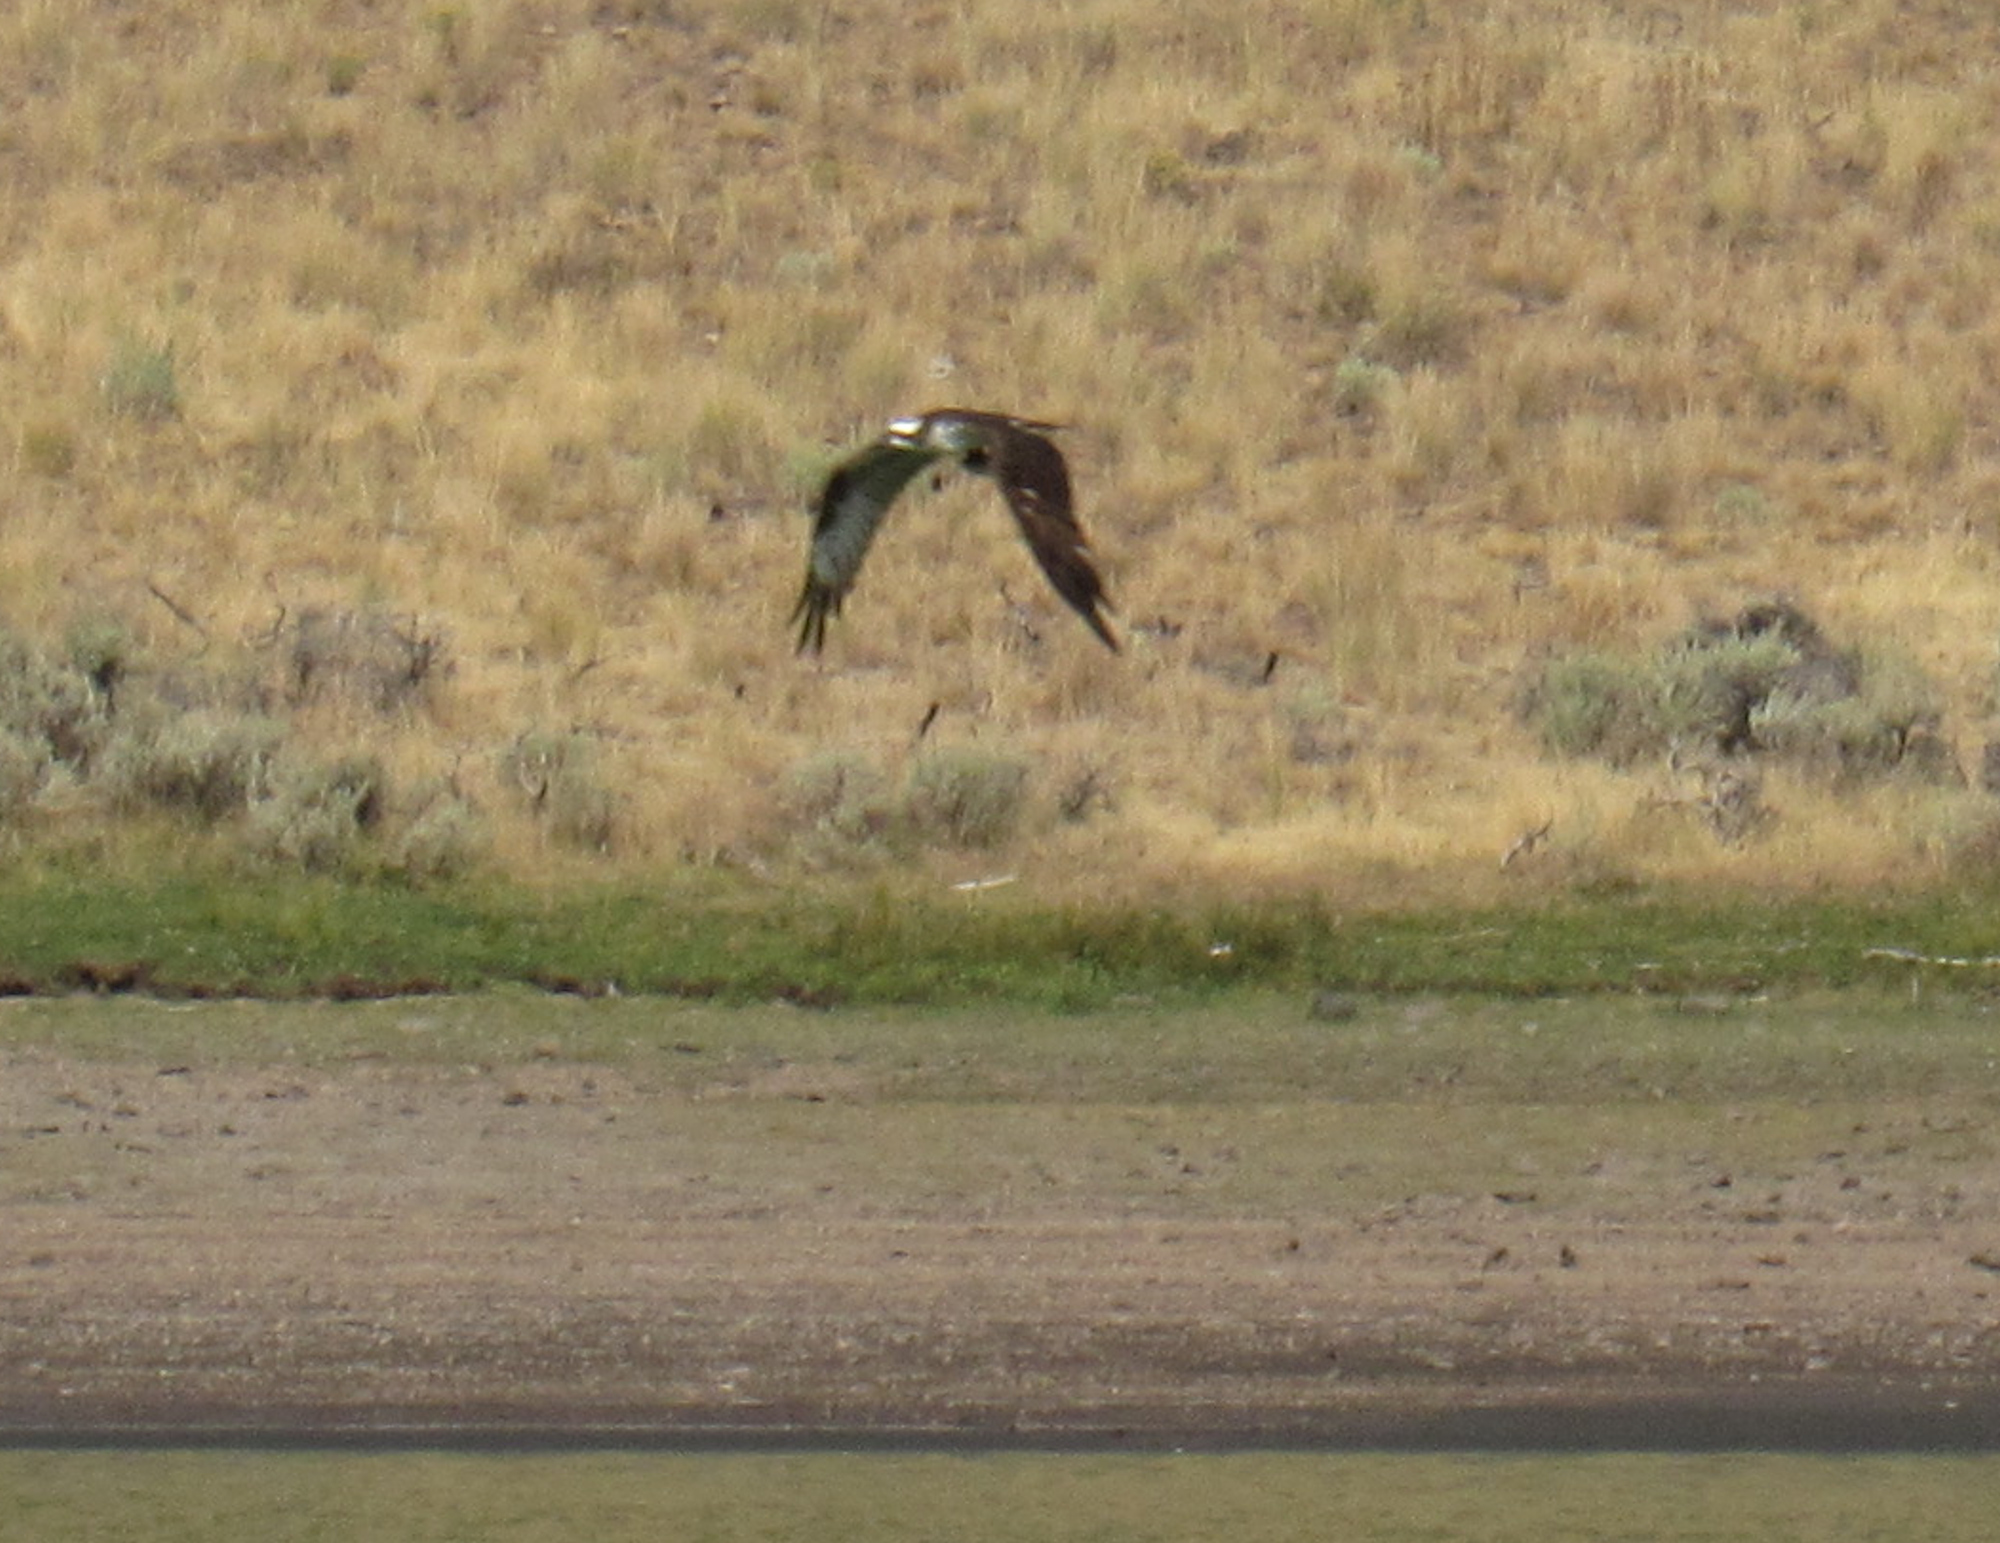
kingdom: Animalia
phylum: Chordata
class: Aves
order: Accipitriformes
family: Pandionidae
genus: Pandion
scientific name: Pandion haliaetus
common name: Osprey
